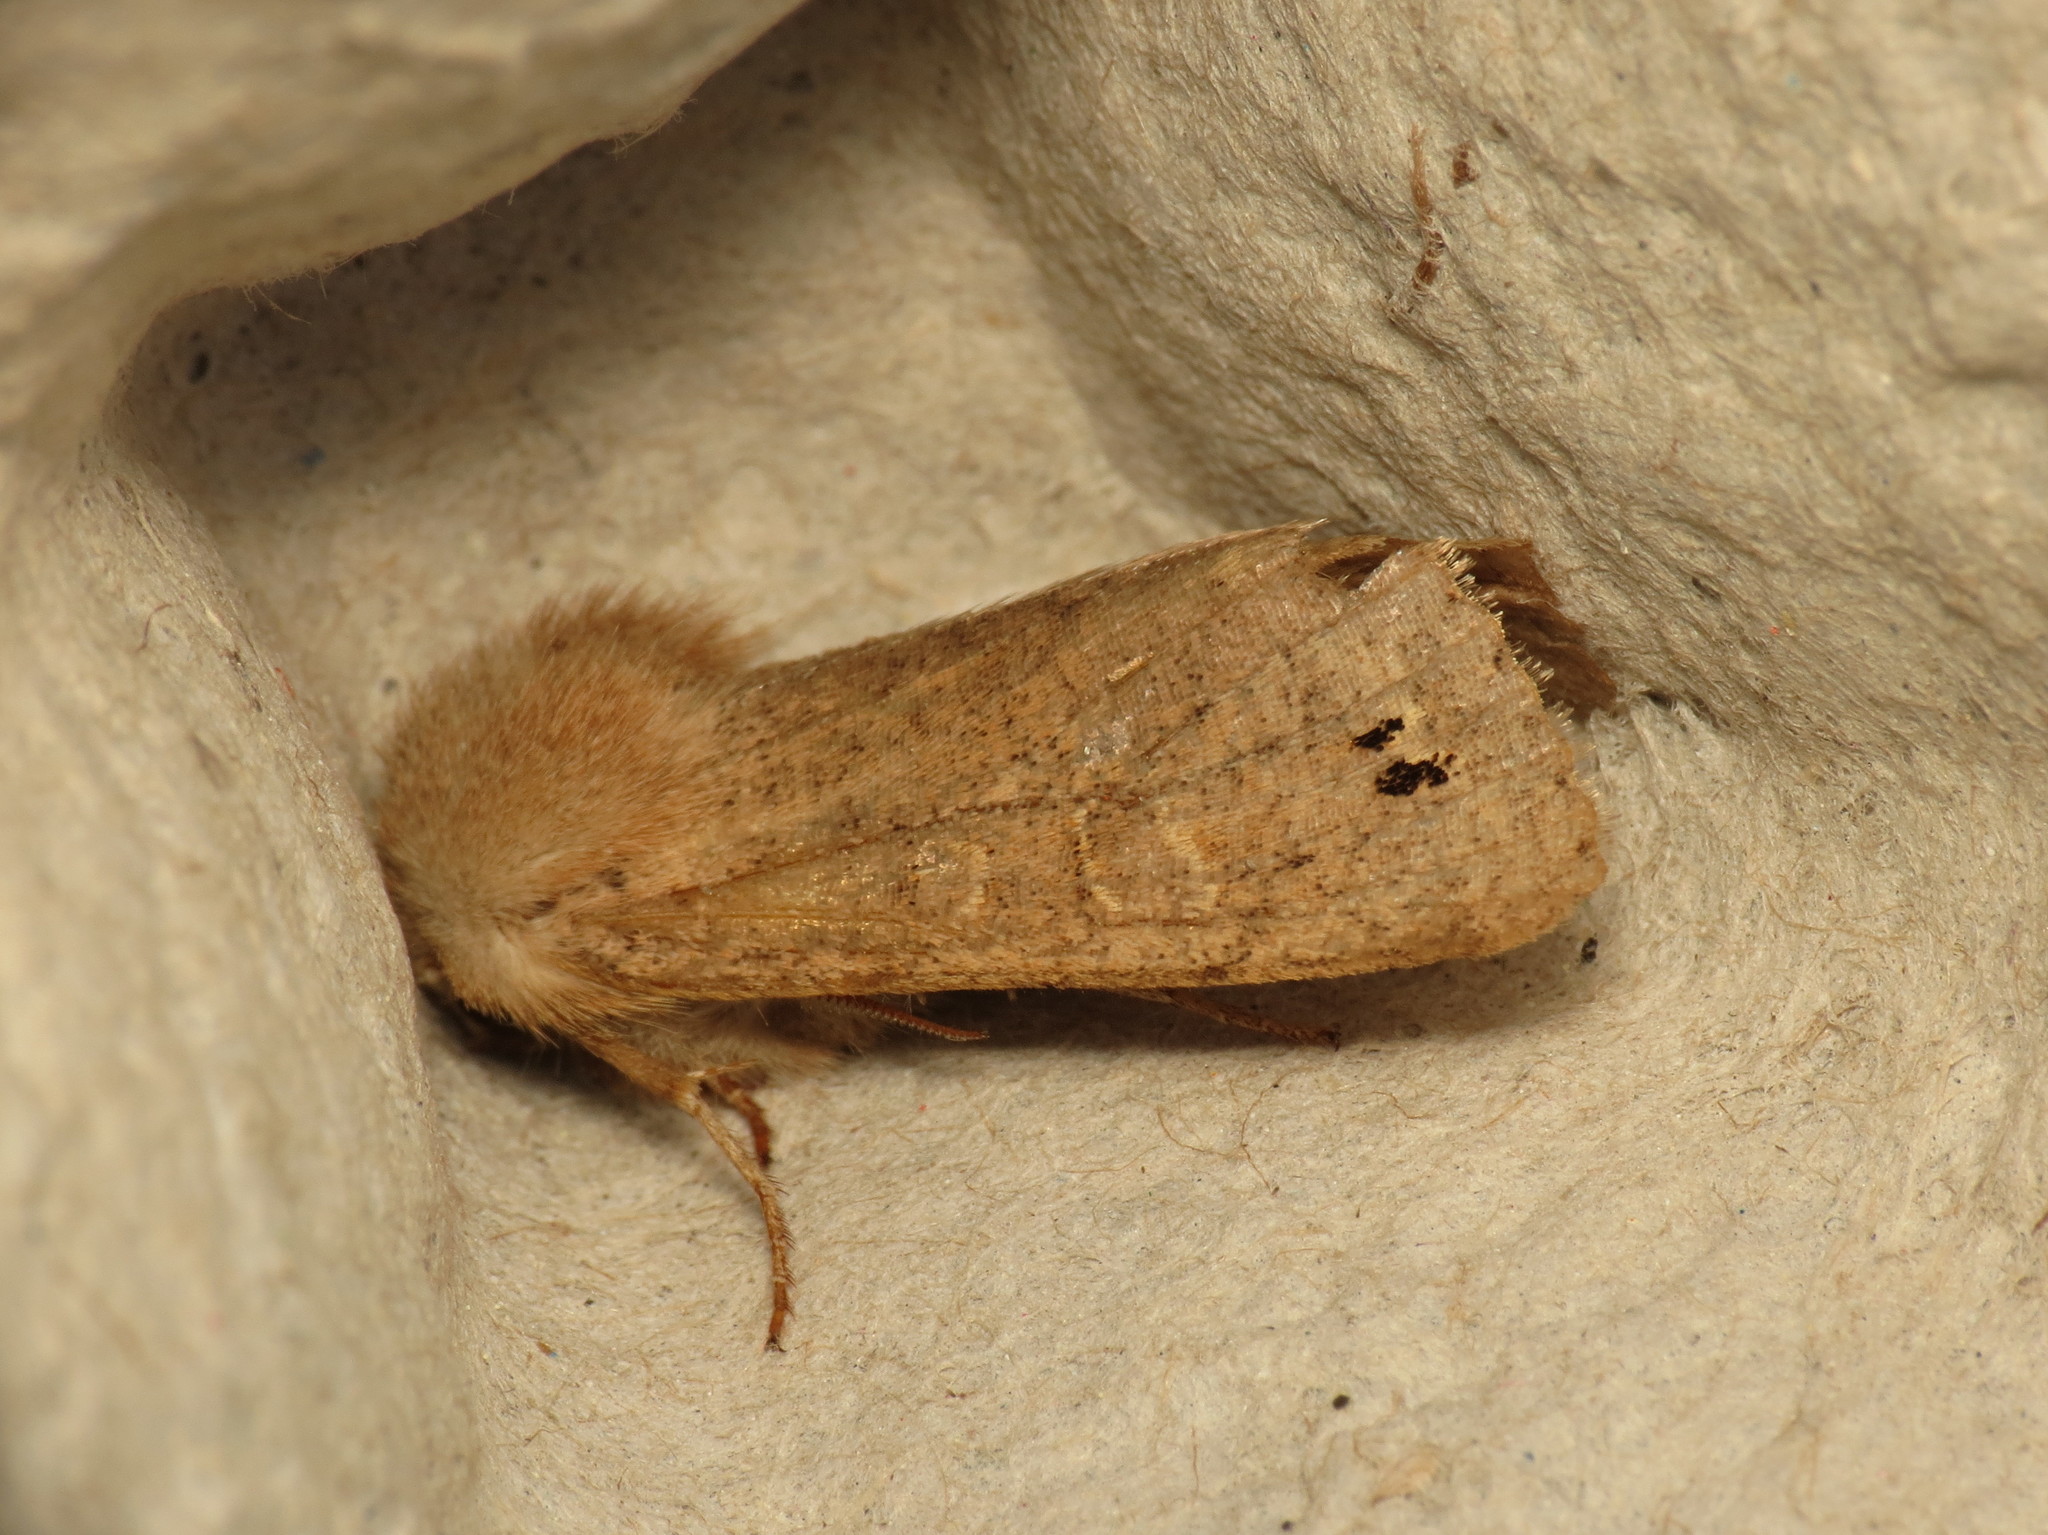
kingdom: Animalia
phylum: Arthropoda
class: Insecta
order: Lepidoptera
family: Noctuidae
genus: Anorthoa
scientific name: Anorthoa munda
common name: Twin-spotted quaker
